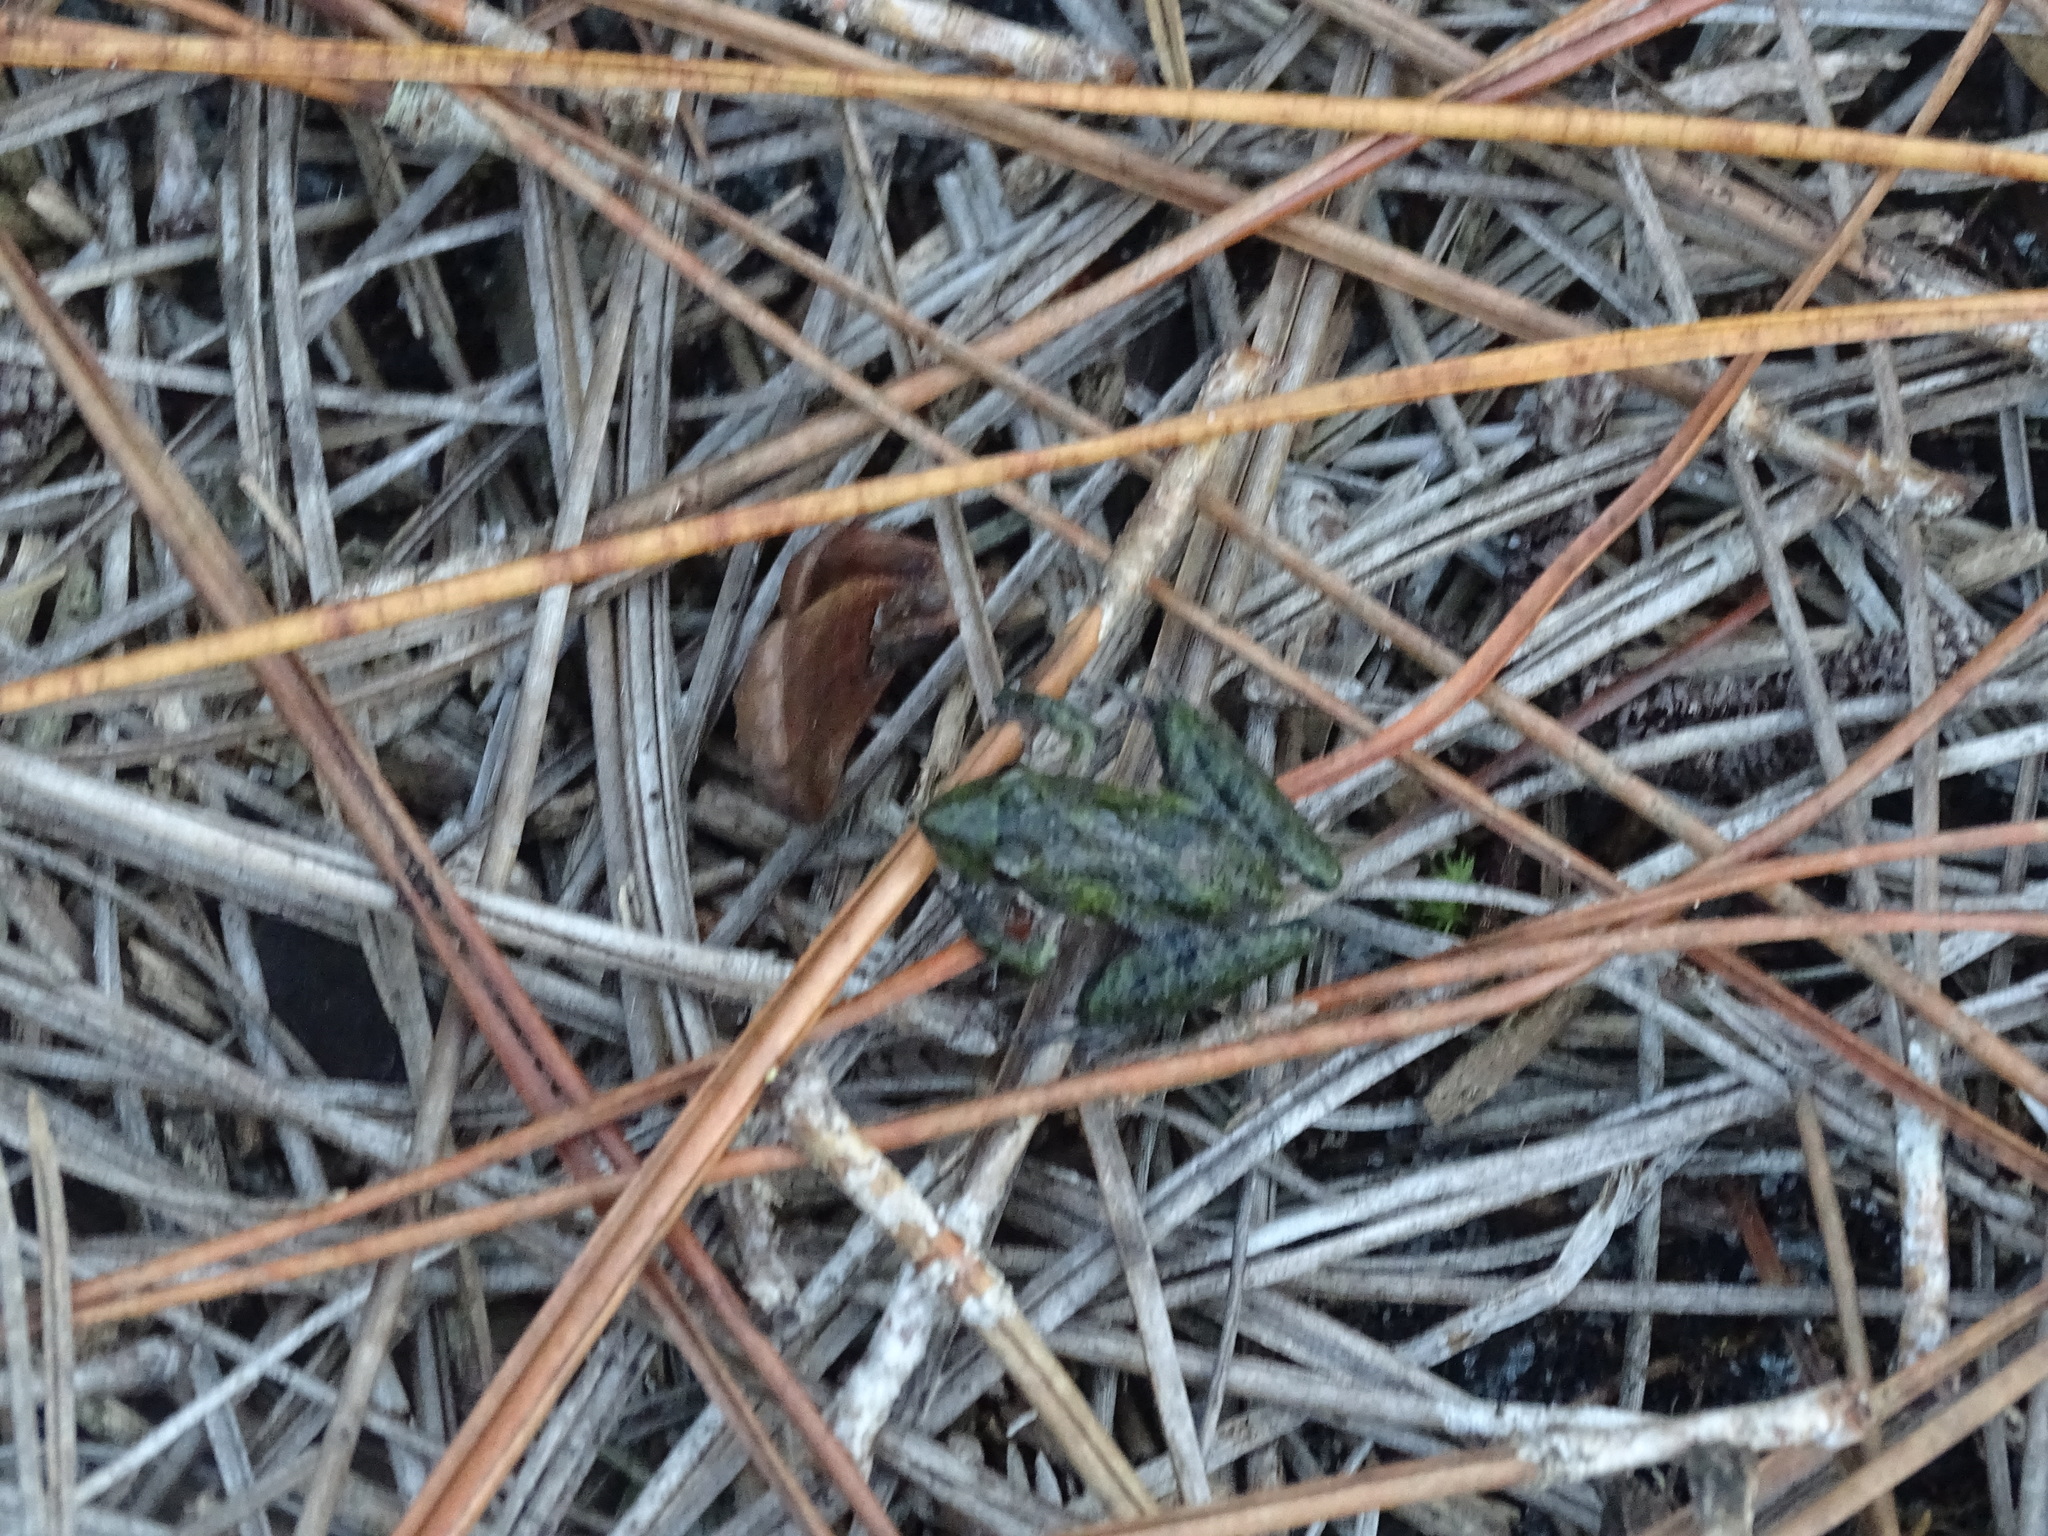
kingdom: Animalia
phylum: Chordata
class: Amphibia
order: Anura
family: Hylidae
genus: Acris
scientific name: Acris gryllus
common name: Southern cricket frog
